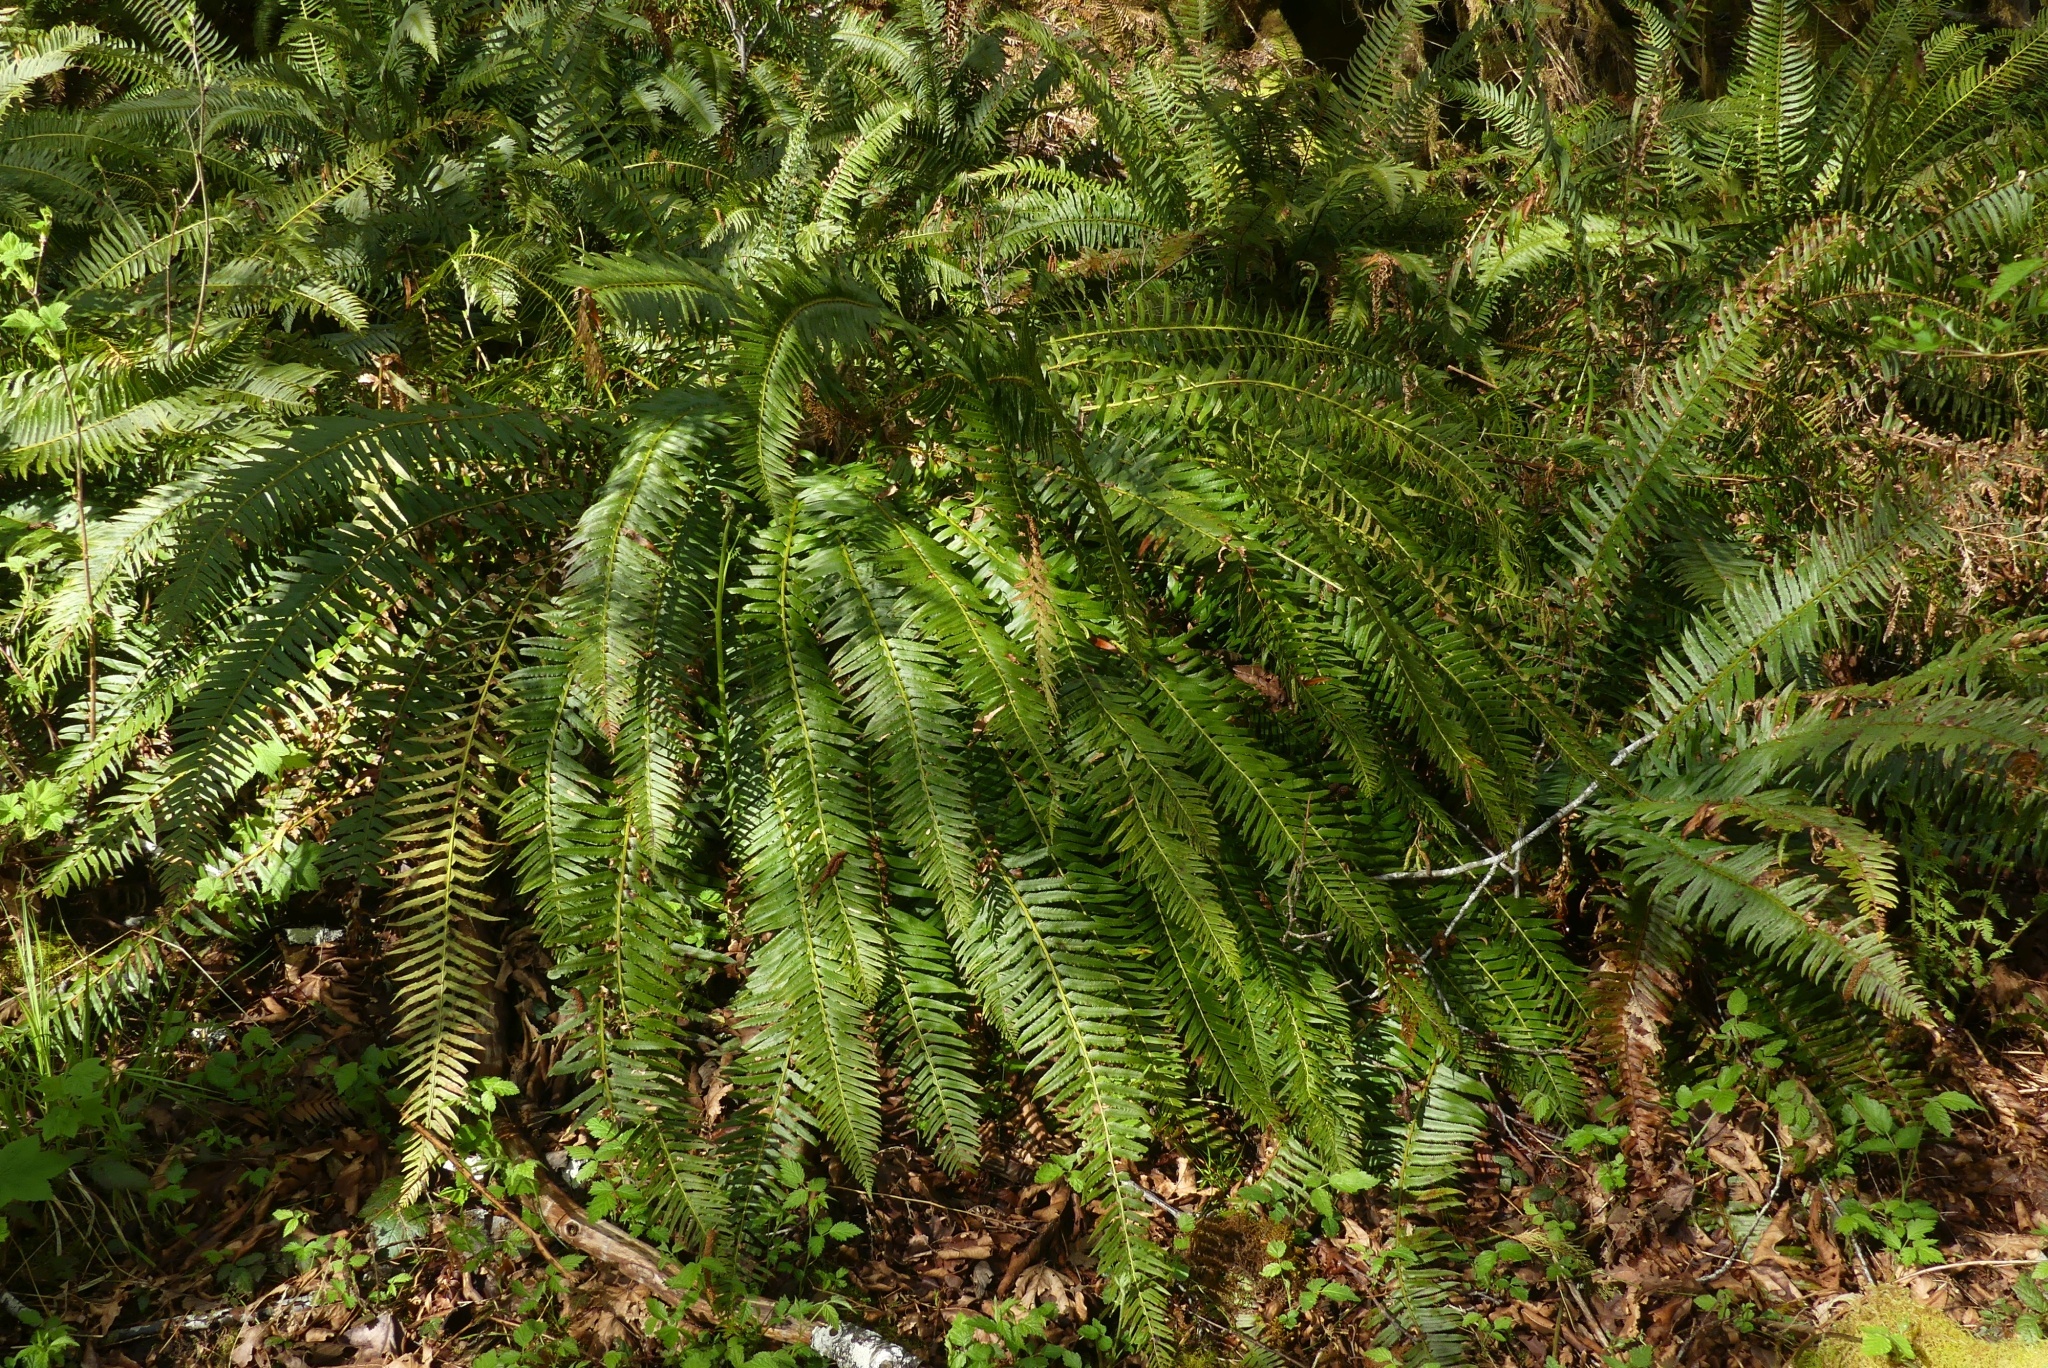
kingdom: Plantae
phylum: Tracheophyta
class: Polypodiopsida
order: Polypodiales
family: Dryopteridaceae
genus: Polystichum
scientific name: Polystichum munitum
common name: Western sword-fern
